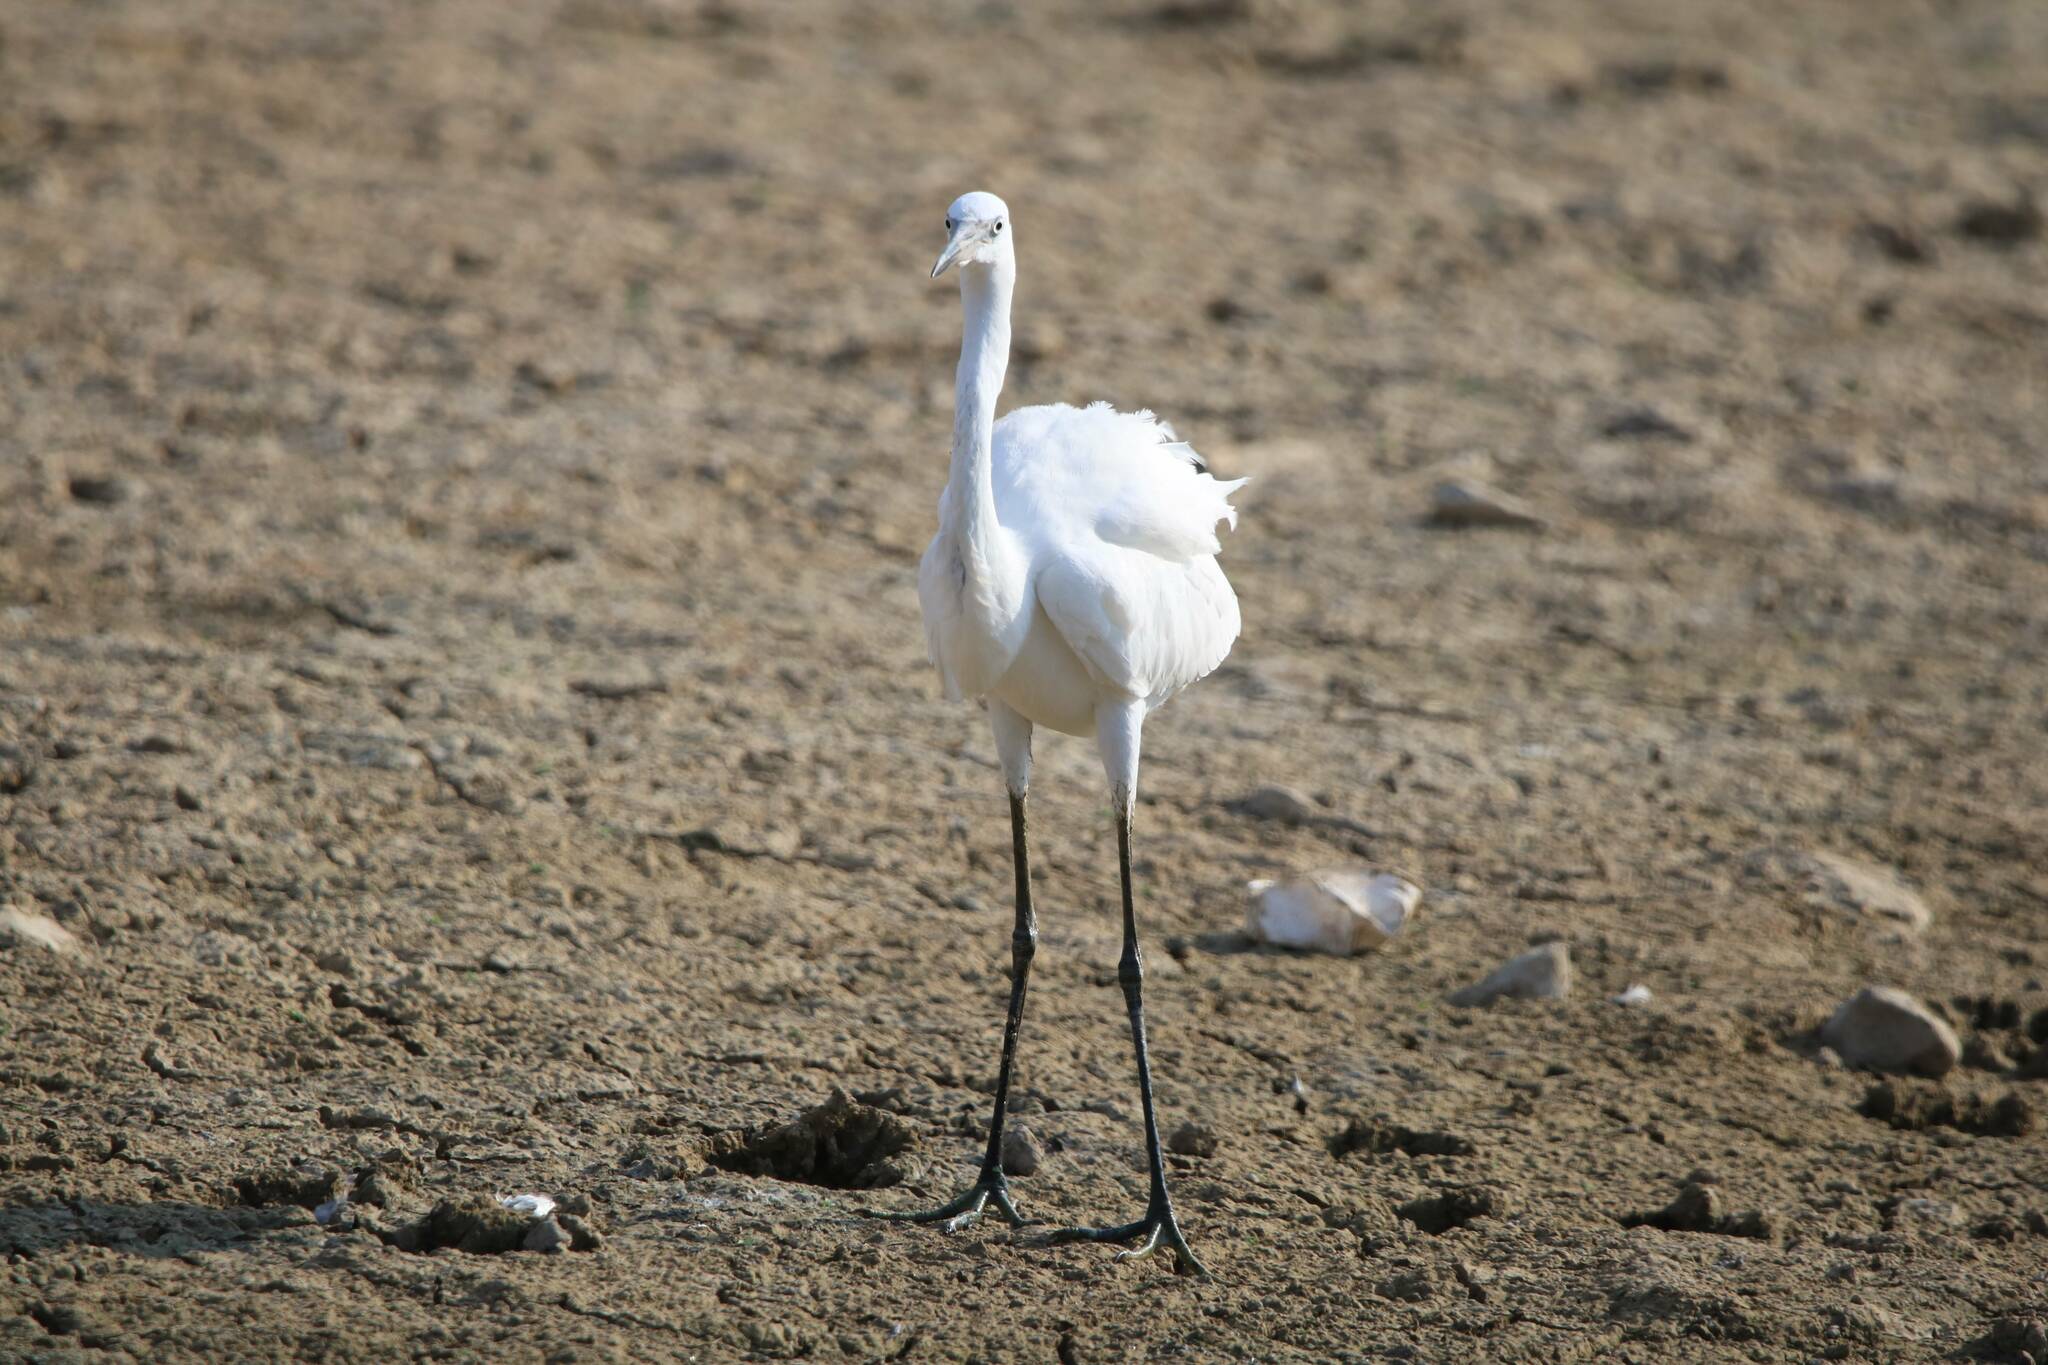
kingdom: Animalia
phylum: Chordata
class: Aves
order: Pelecaniformes
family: Ardeidae
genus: Egretta
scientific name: Egretta garzetta
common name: Little egret
